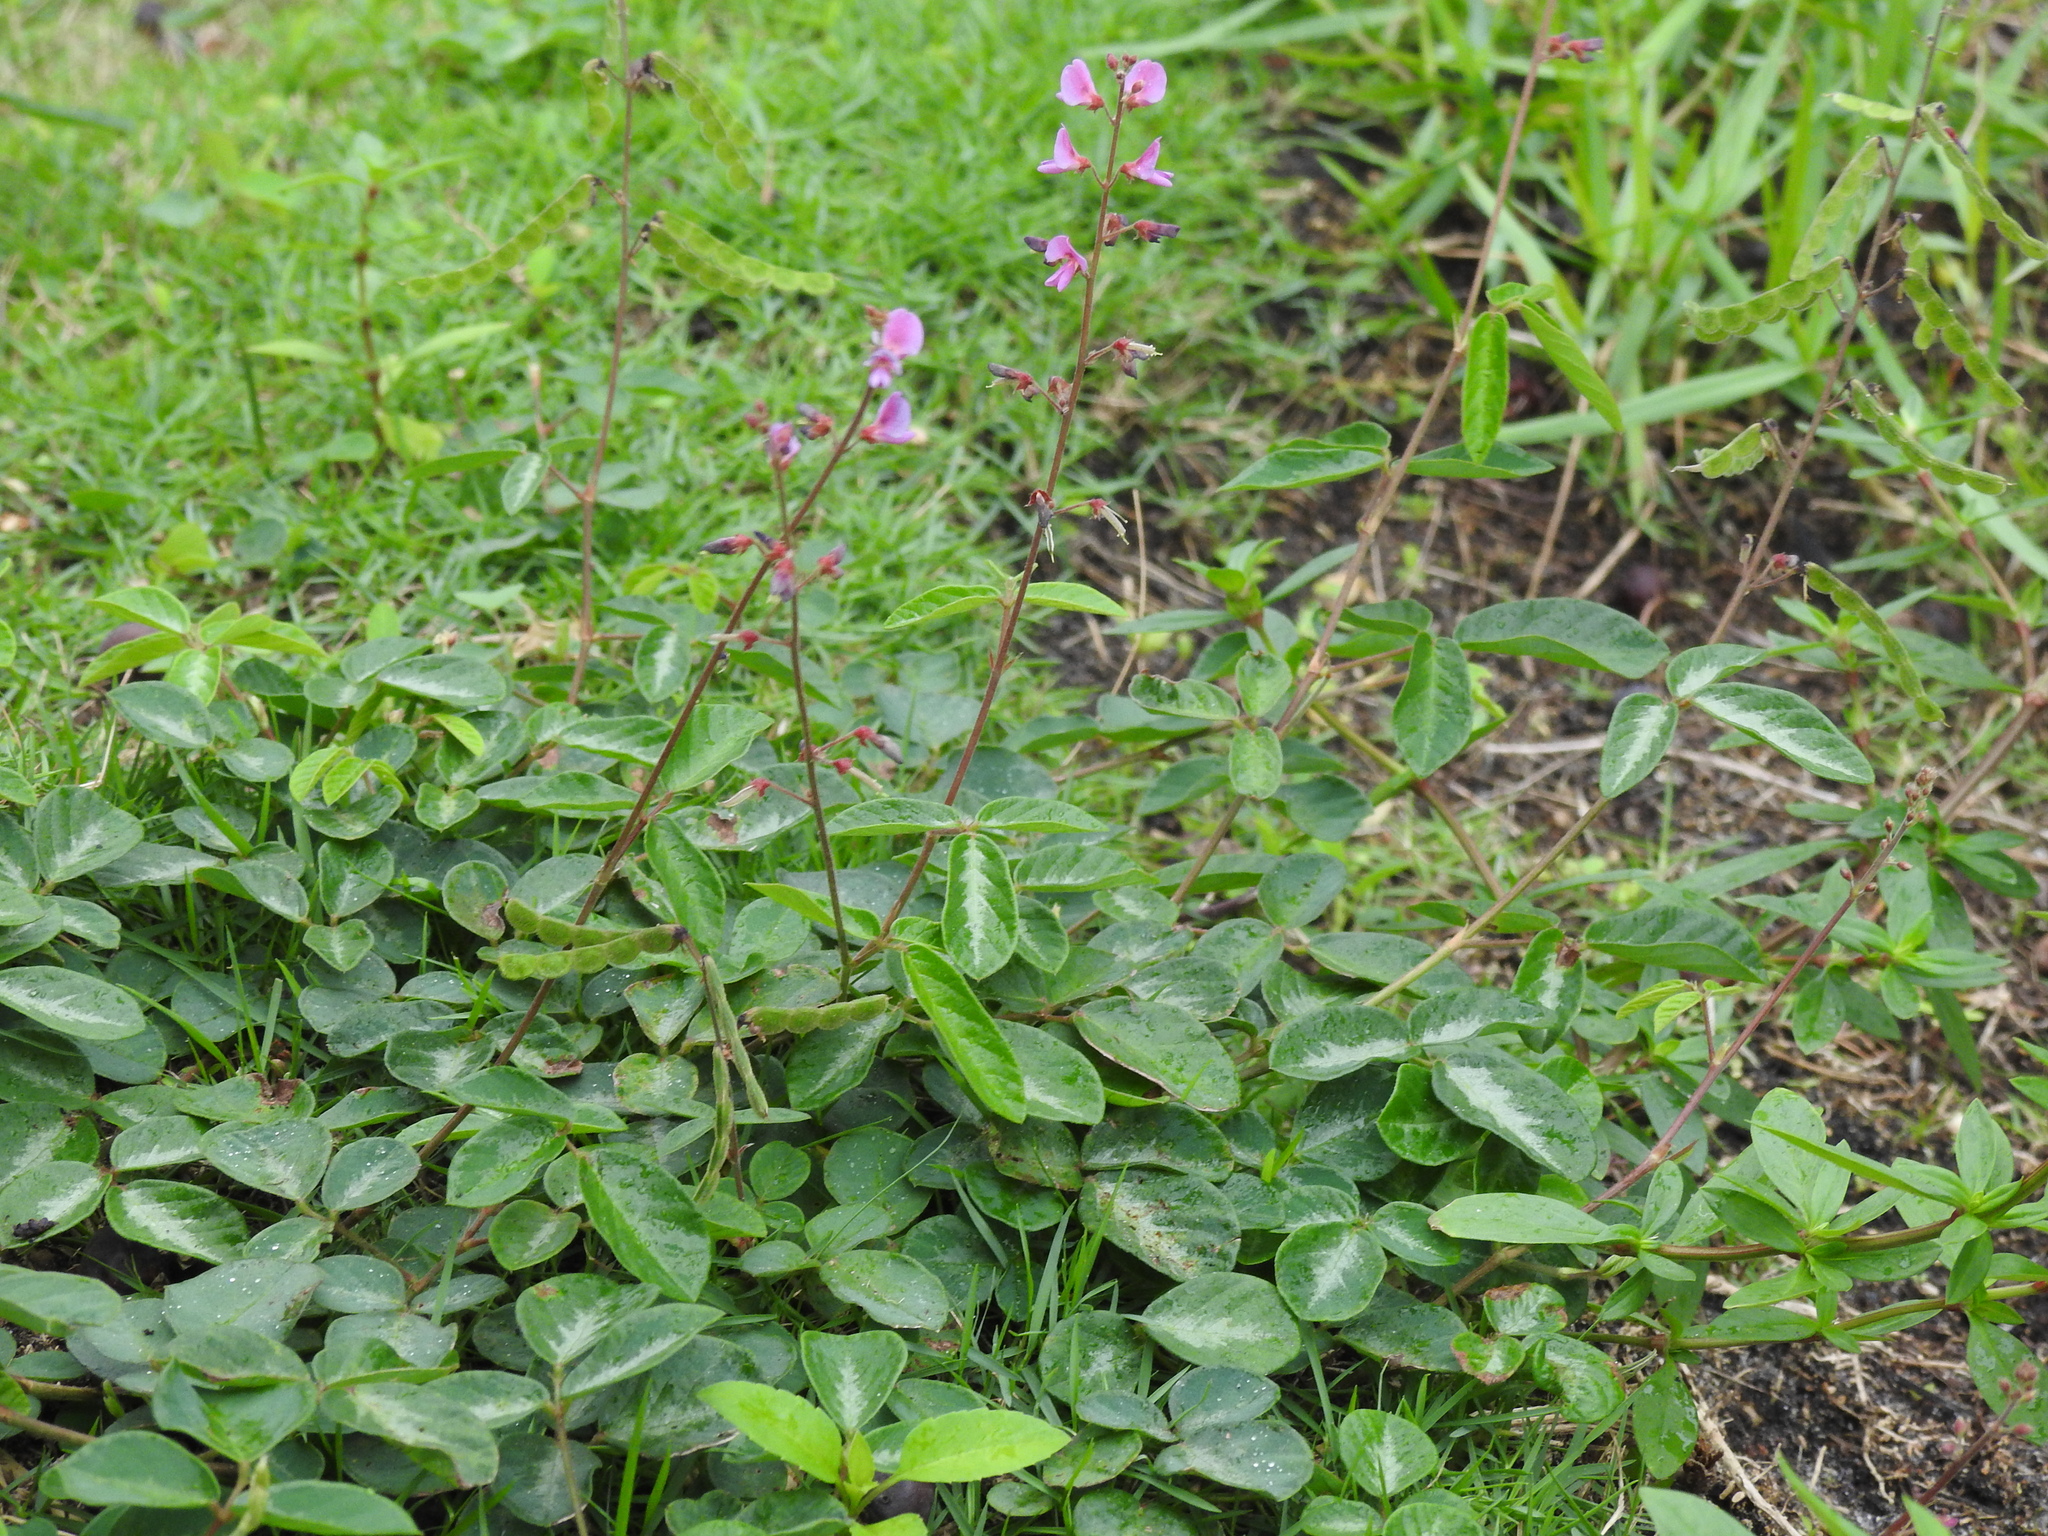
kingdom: Plantae
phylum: Tracheophyta
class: Magnoliopsida
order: Fabales
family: Fabaceae
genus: Desmodium
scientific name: Desmodium incanum
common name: Tickclover
